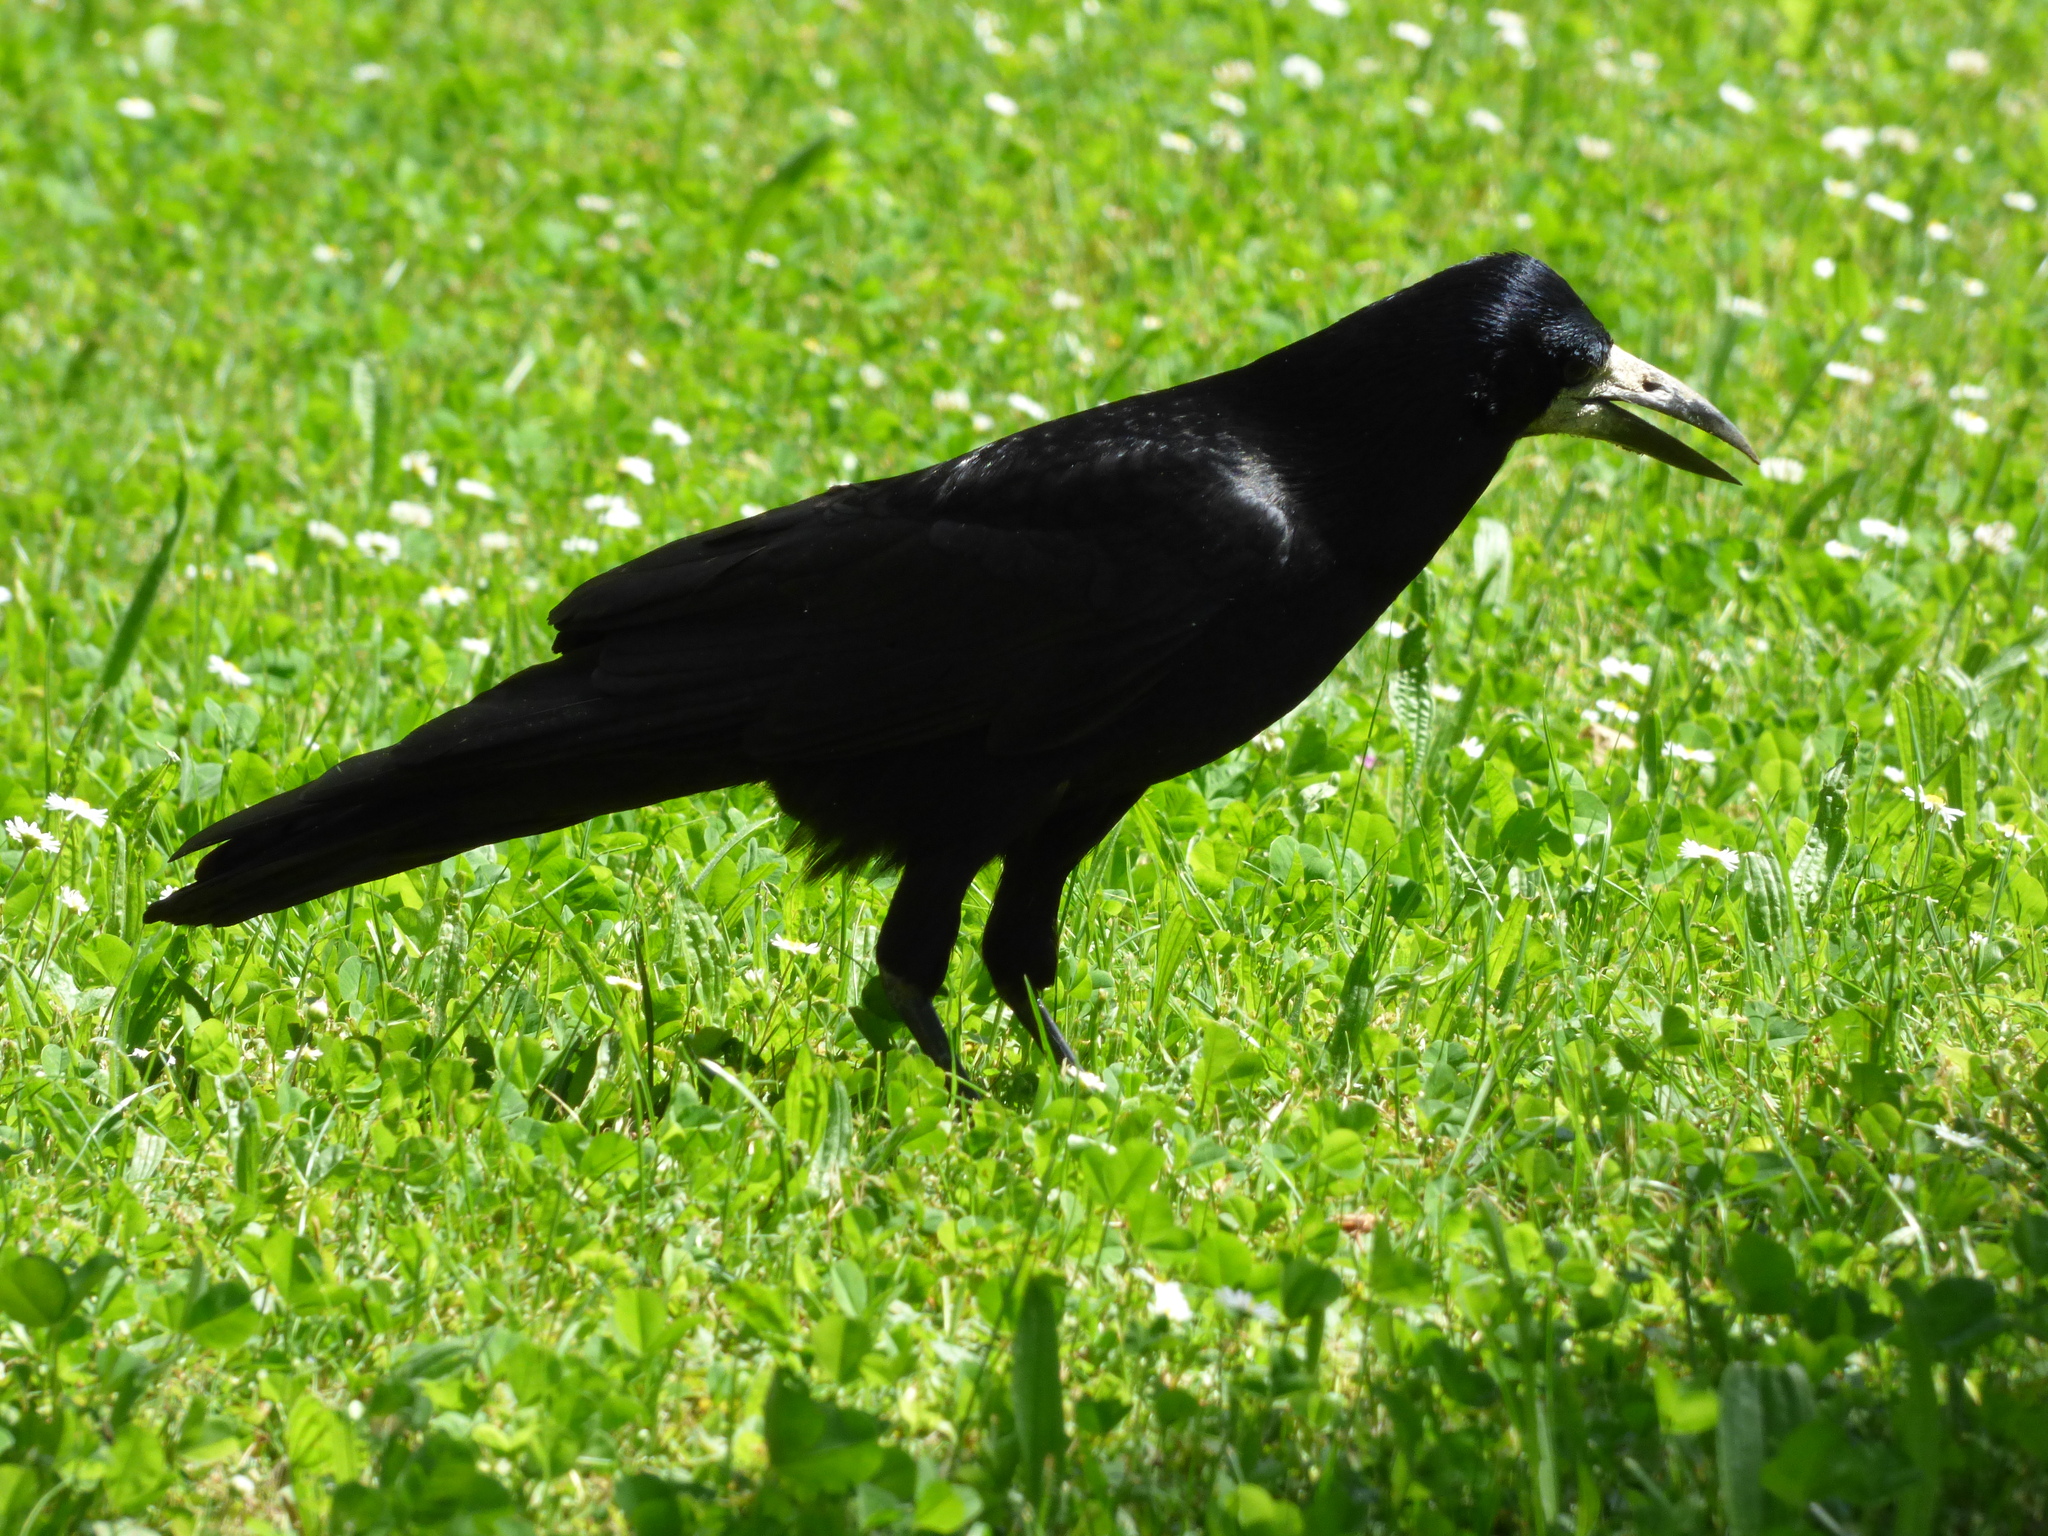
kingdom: Animalia
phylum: Chordata
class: Aves
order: Passeriformes
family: Corvidae
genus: Corvus
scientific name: Corvus frugilegus
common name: Rook
